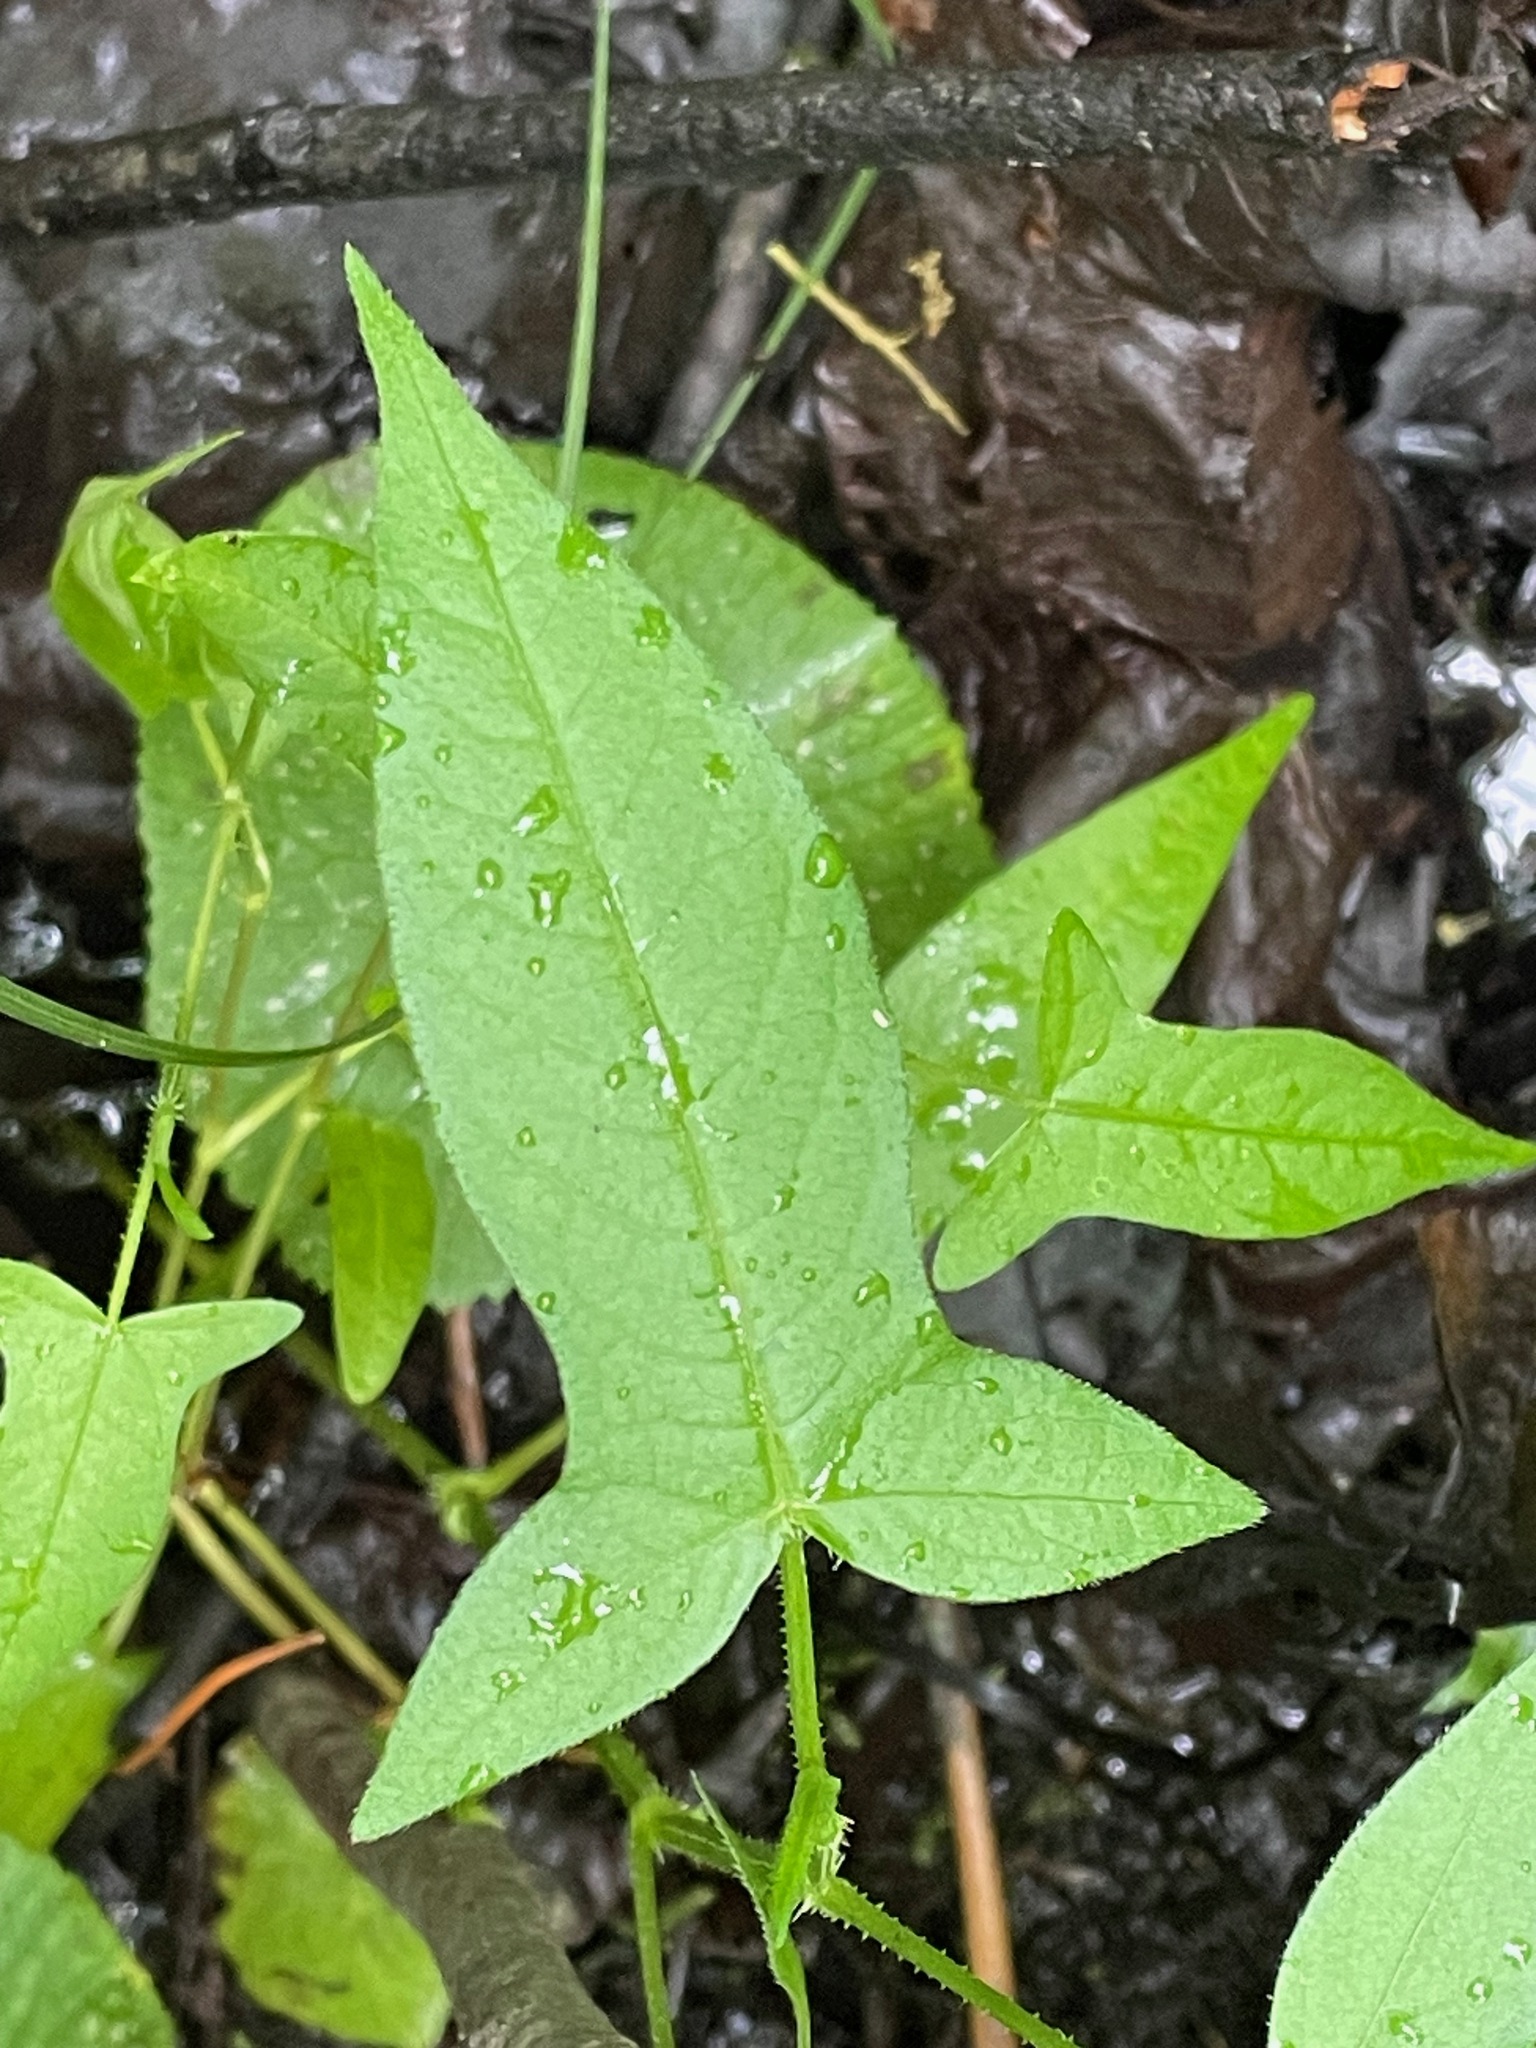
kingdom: Plantae
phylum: Tracheophyta
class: Magnoliopsida
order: Caryophyllales
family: Polygonaceae
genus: Persicaria
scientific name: Persicaria arifolia
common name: Halberd-leaved tear-thumb
